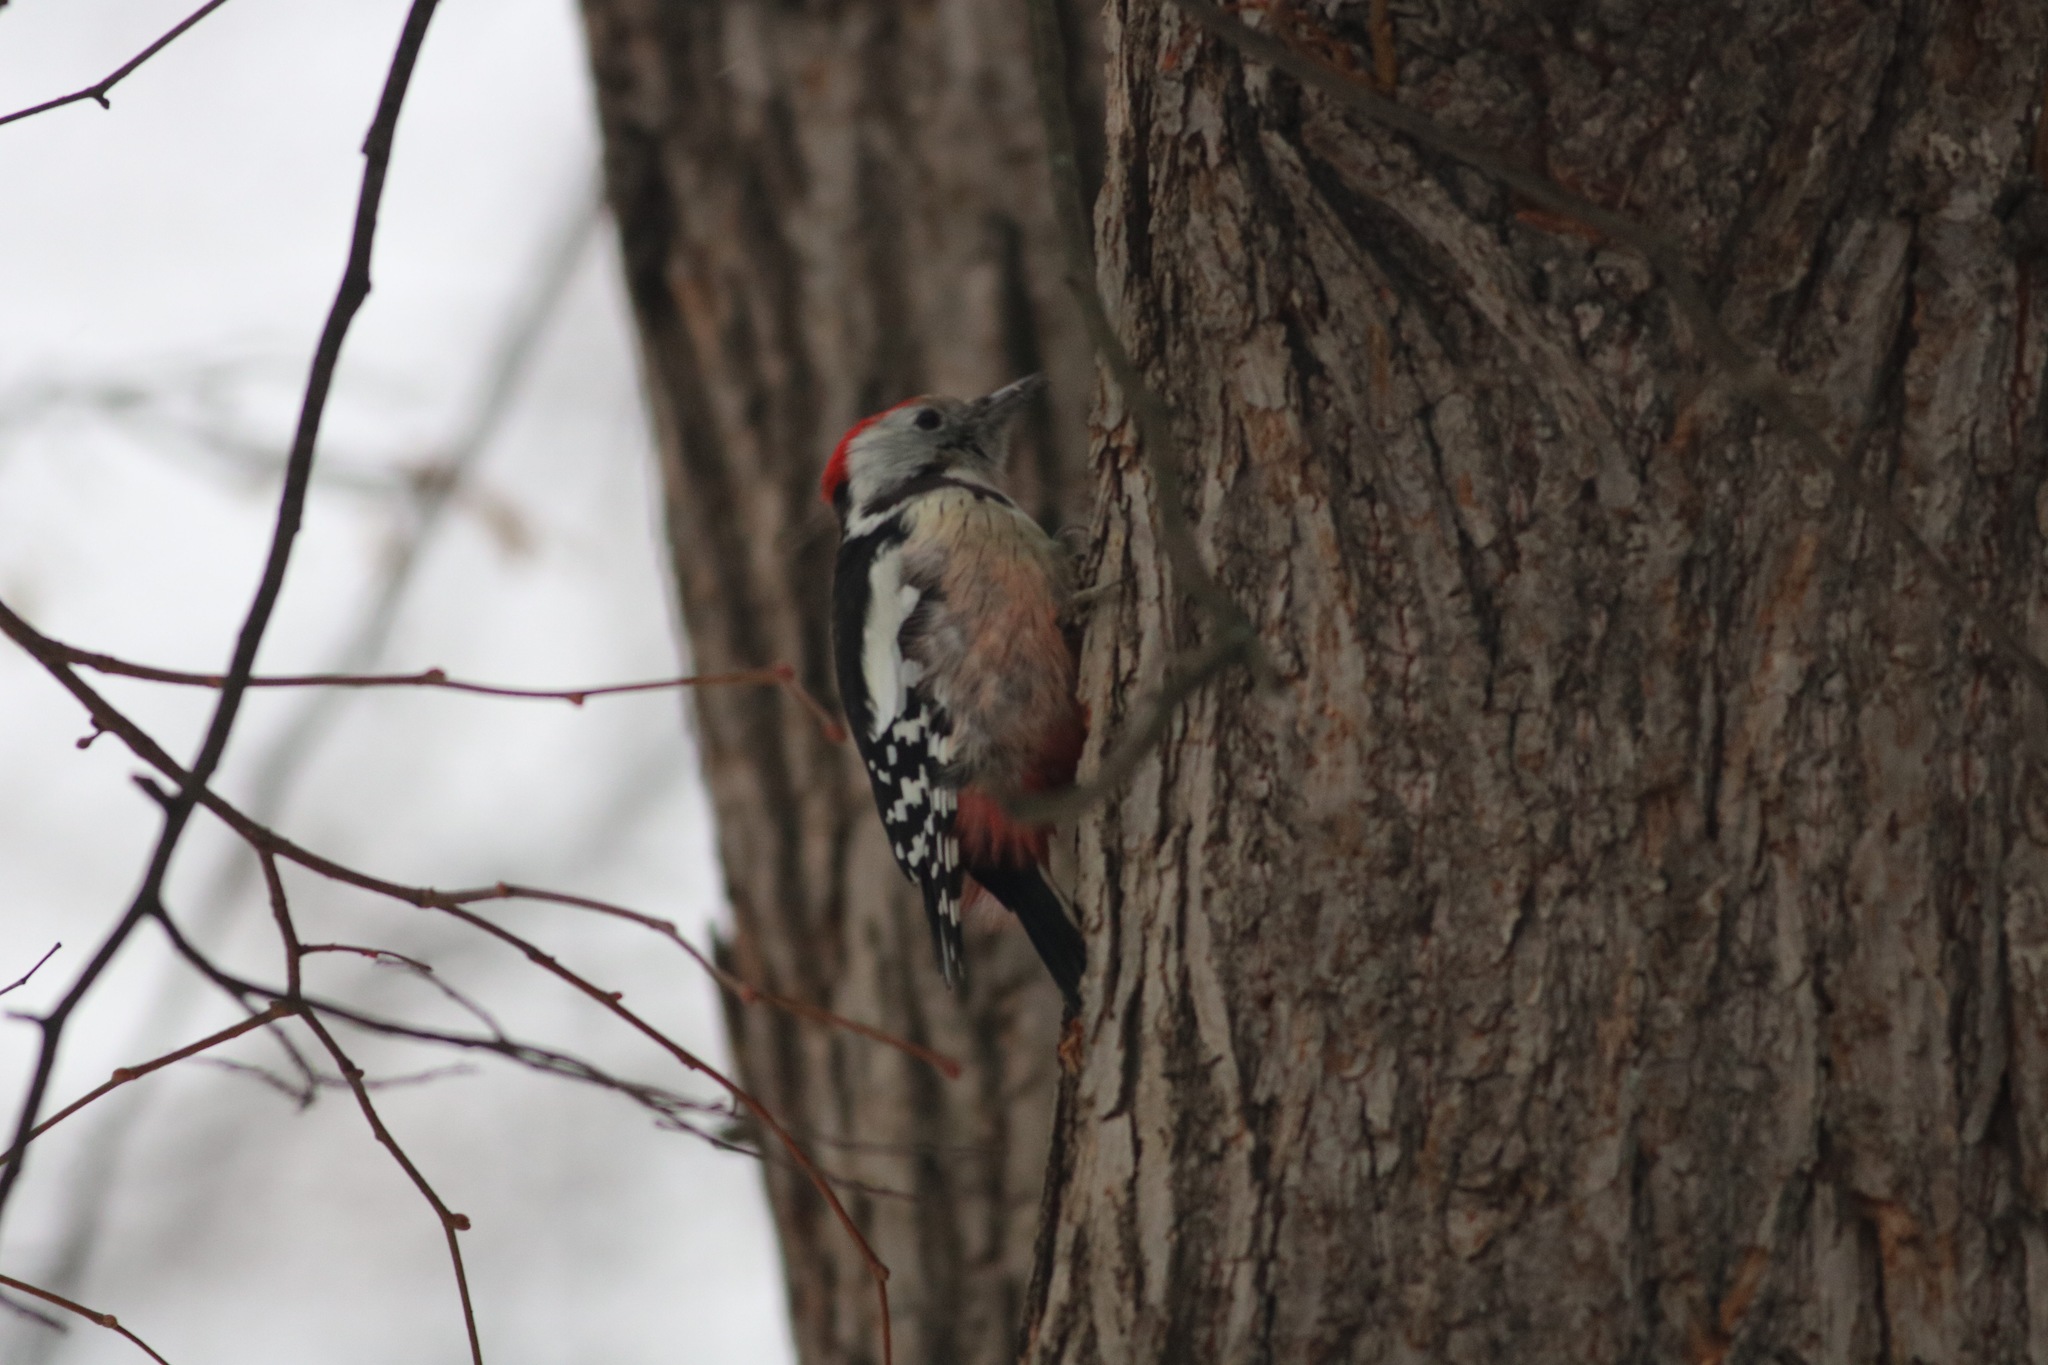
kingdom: Animalia
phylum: Chordata
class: Aves
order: Piciformes
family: Picidae
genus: Dendrocoptes
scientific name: Dendrocoptes medius
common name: Middle spotted woodpecker
